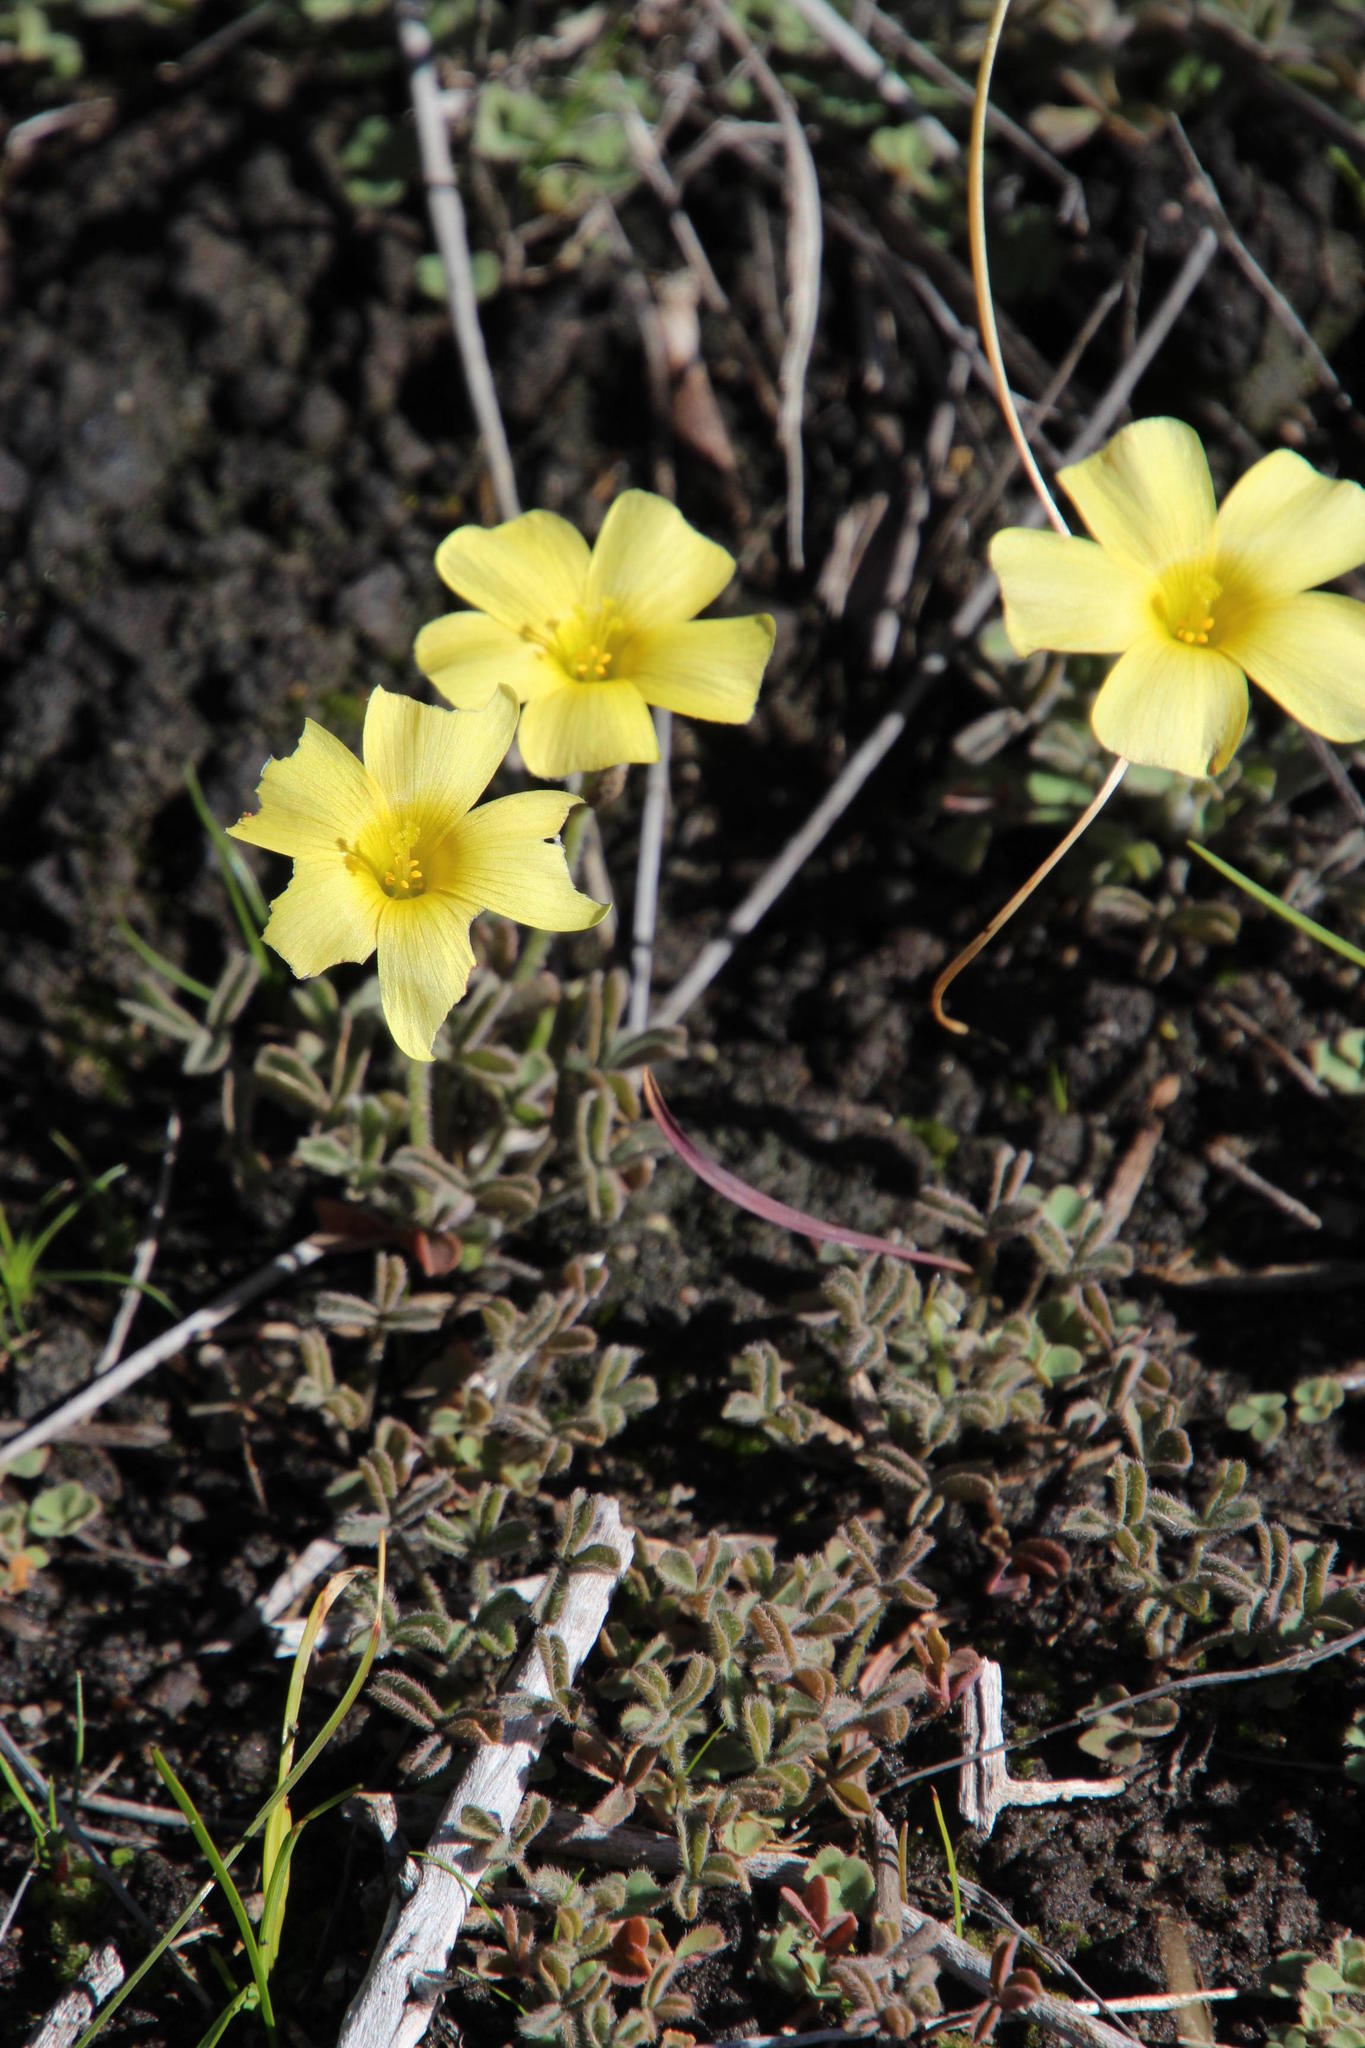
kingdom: Plantae
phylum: Tracheophyta
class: Magnoliopsida
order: Oxalidales
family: Oxalidaceae
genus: Oxalis
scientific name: Oxalis obtusa
